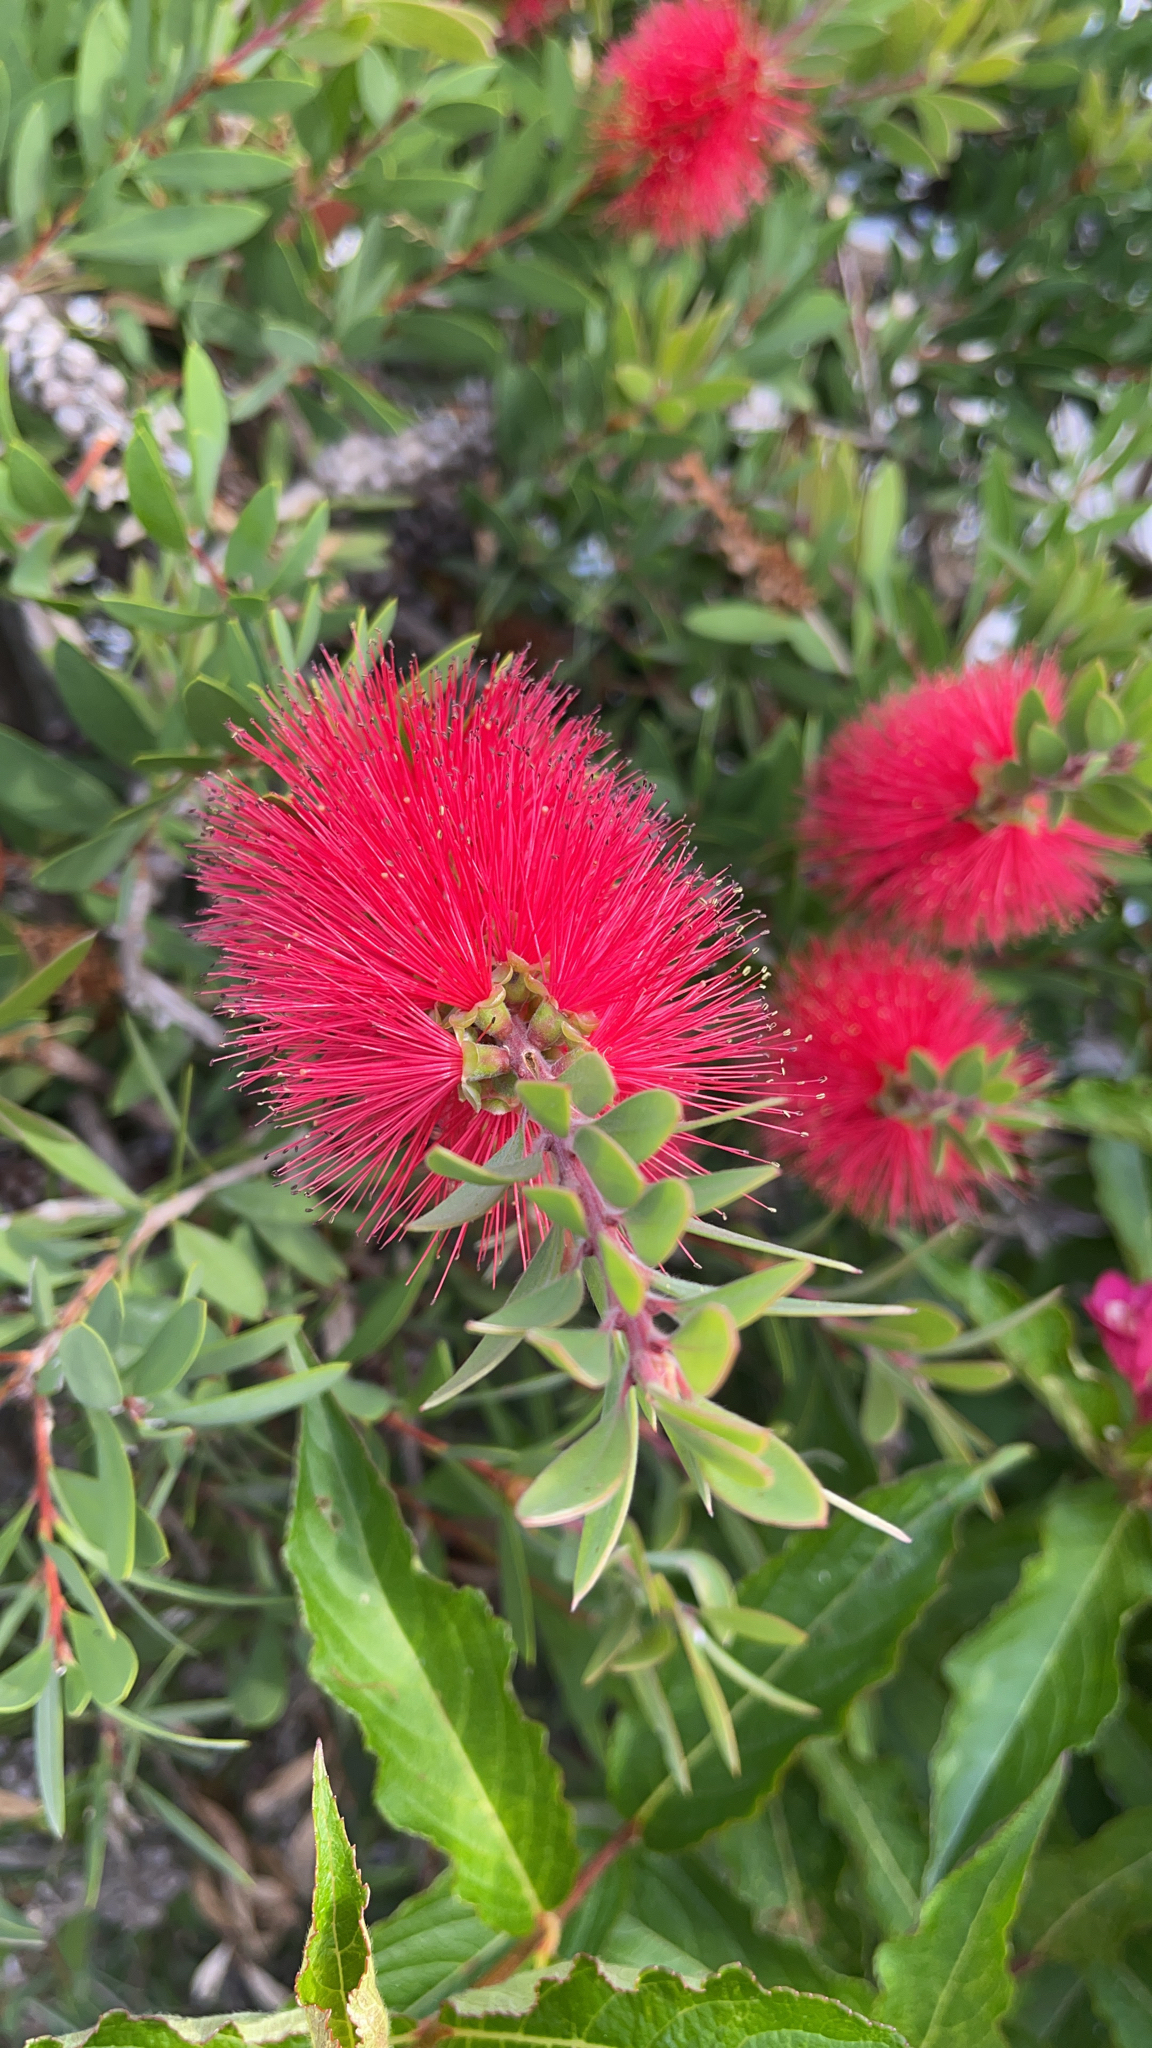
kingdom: Plantae
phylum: Tracheophyta
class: Magnoliopsida
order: Myrtales
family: Myrtaceae
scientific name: Myrtaceae
